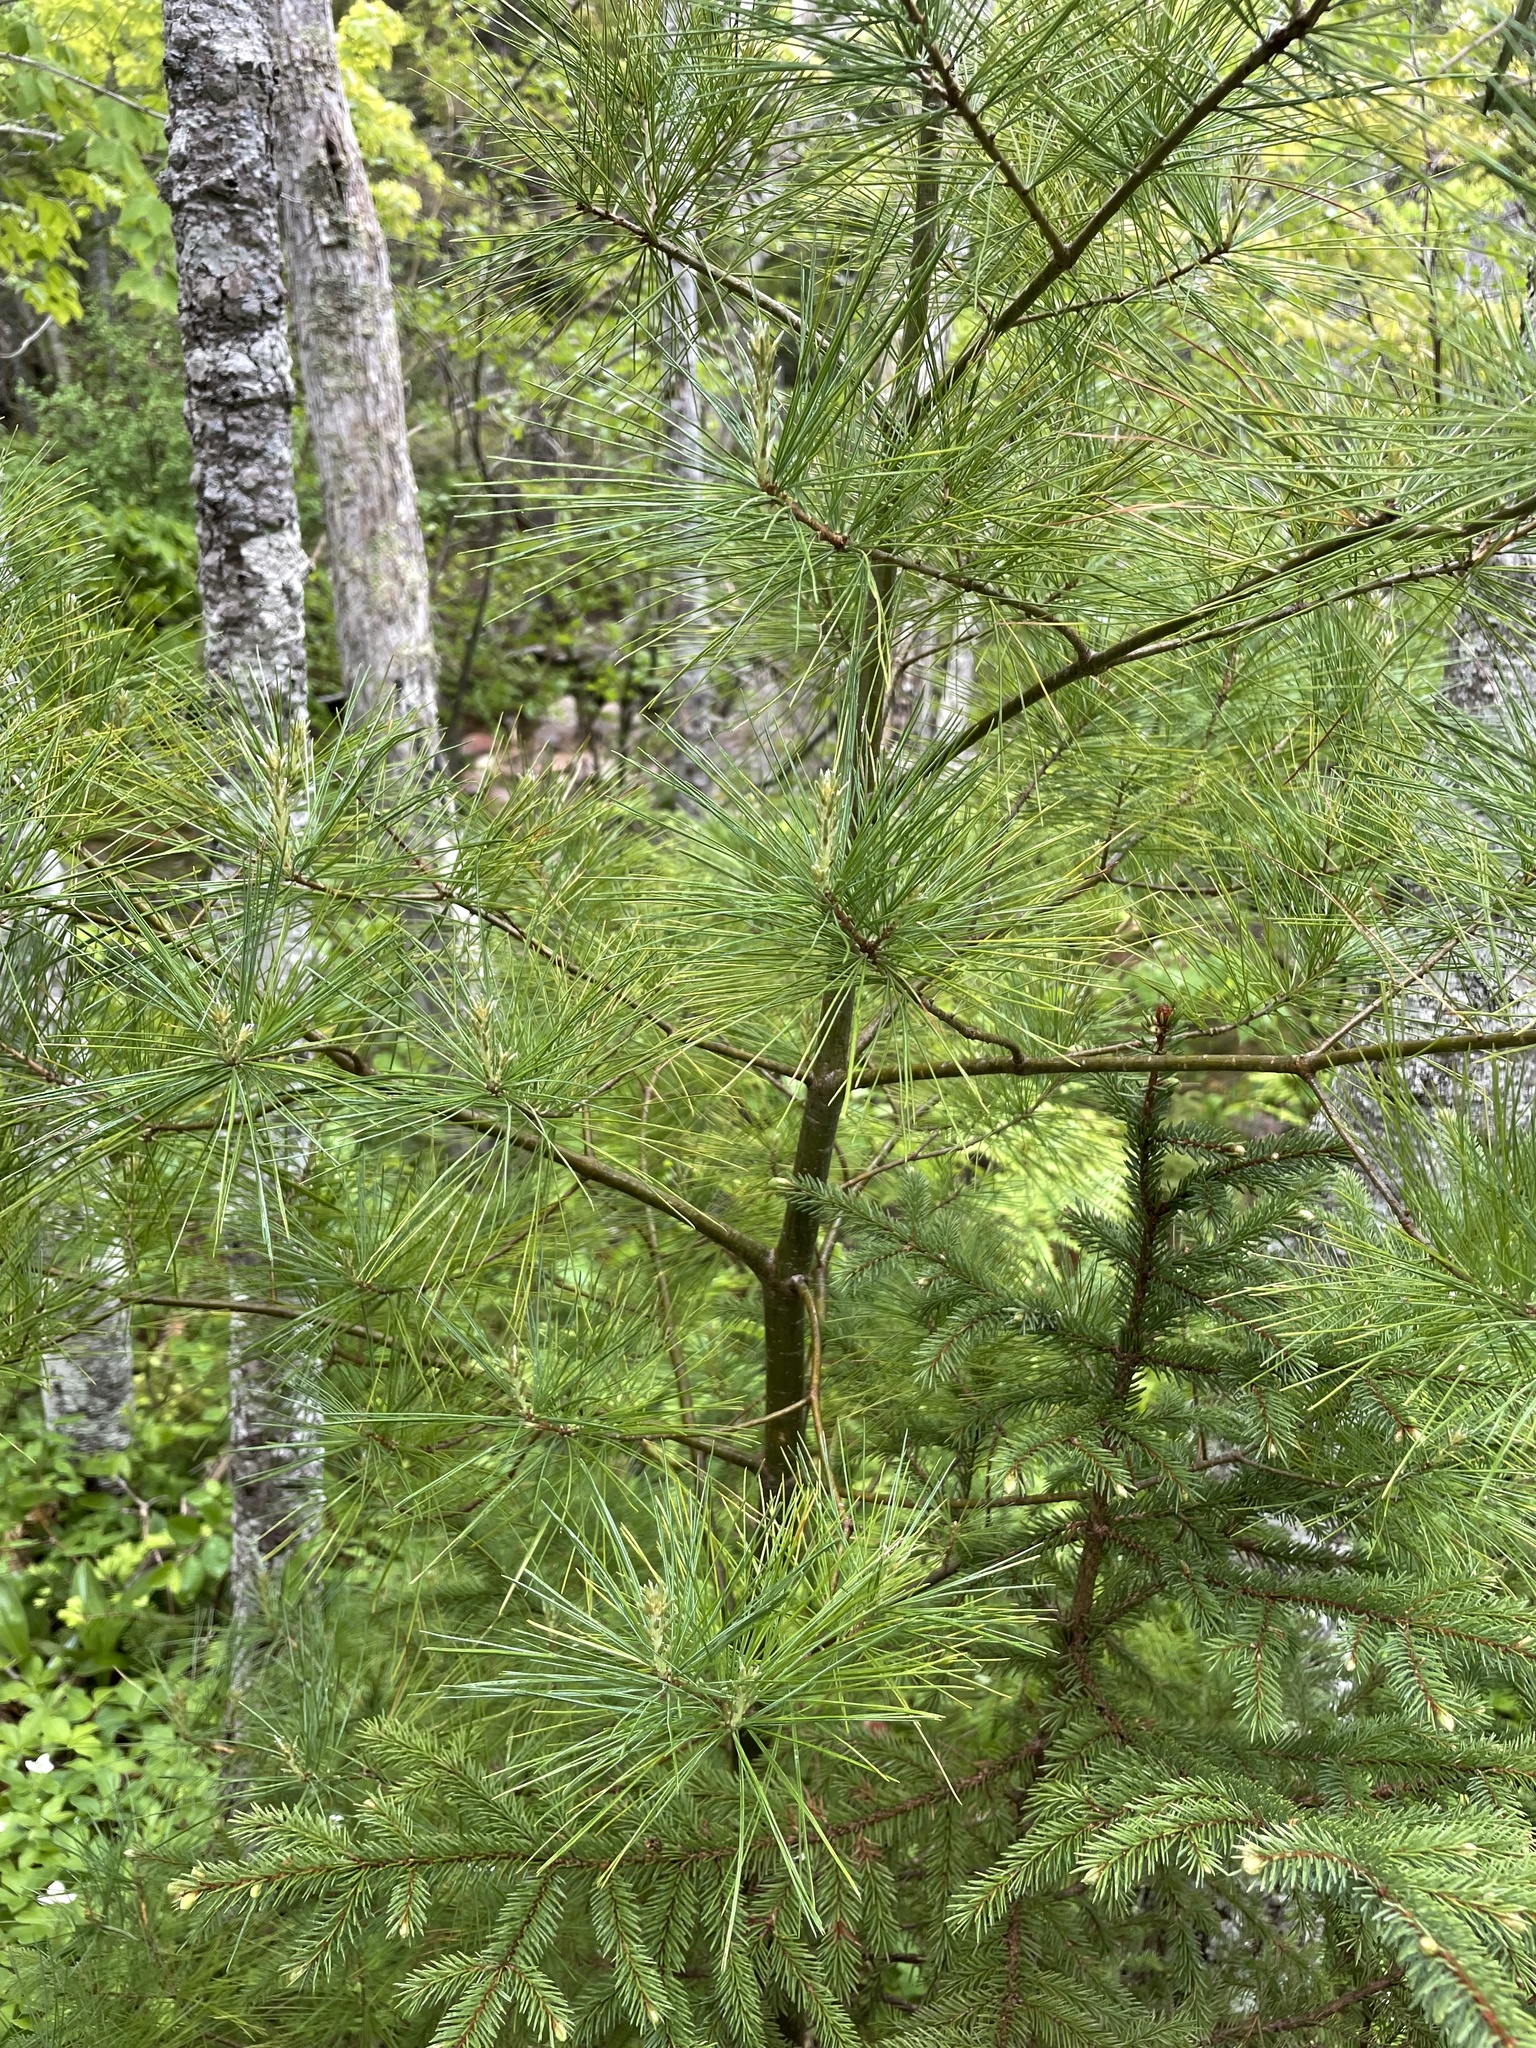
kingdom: Plantae
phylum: Tracheophyta
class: Pinopsida
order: Pinales
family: Pinaceae
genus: Pinus
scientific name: Pinus strobus
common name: Weymouth pine
